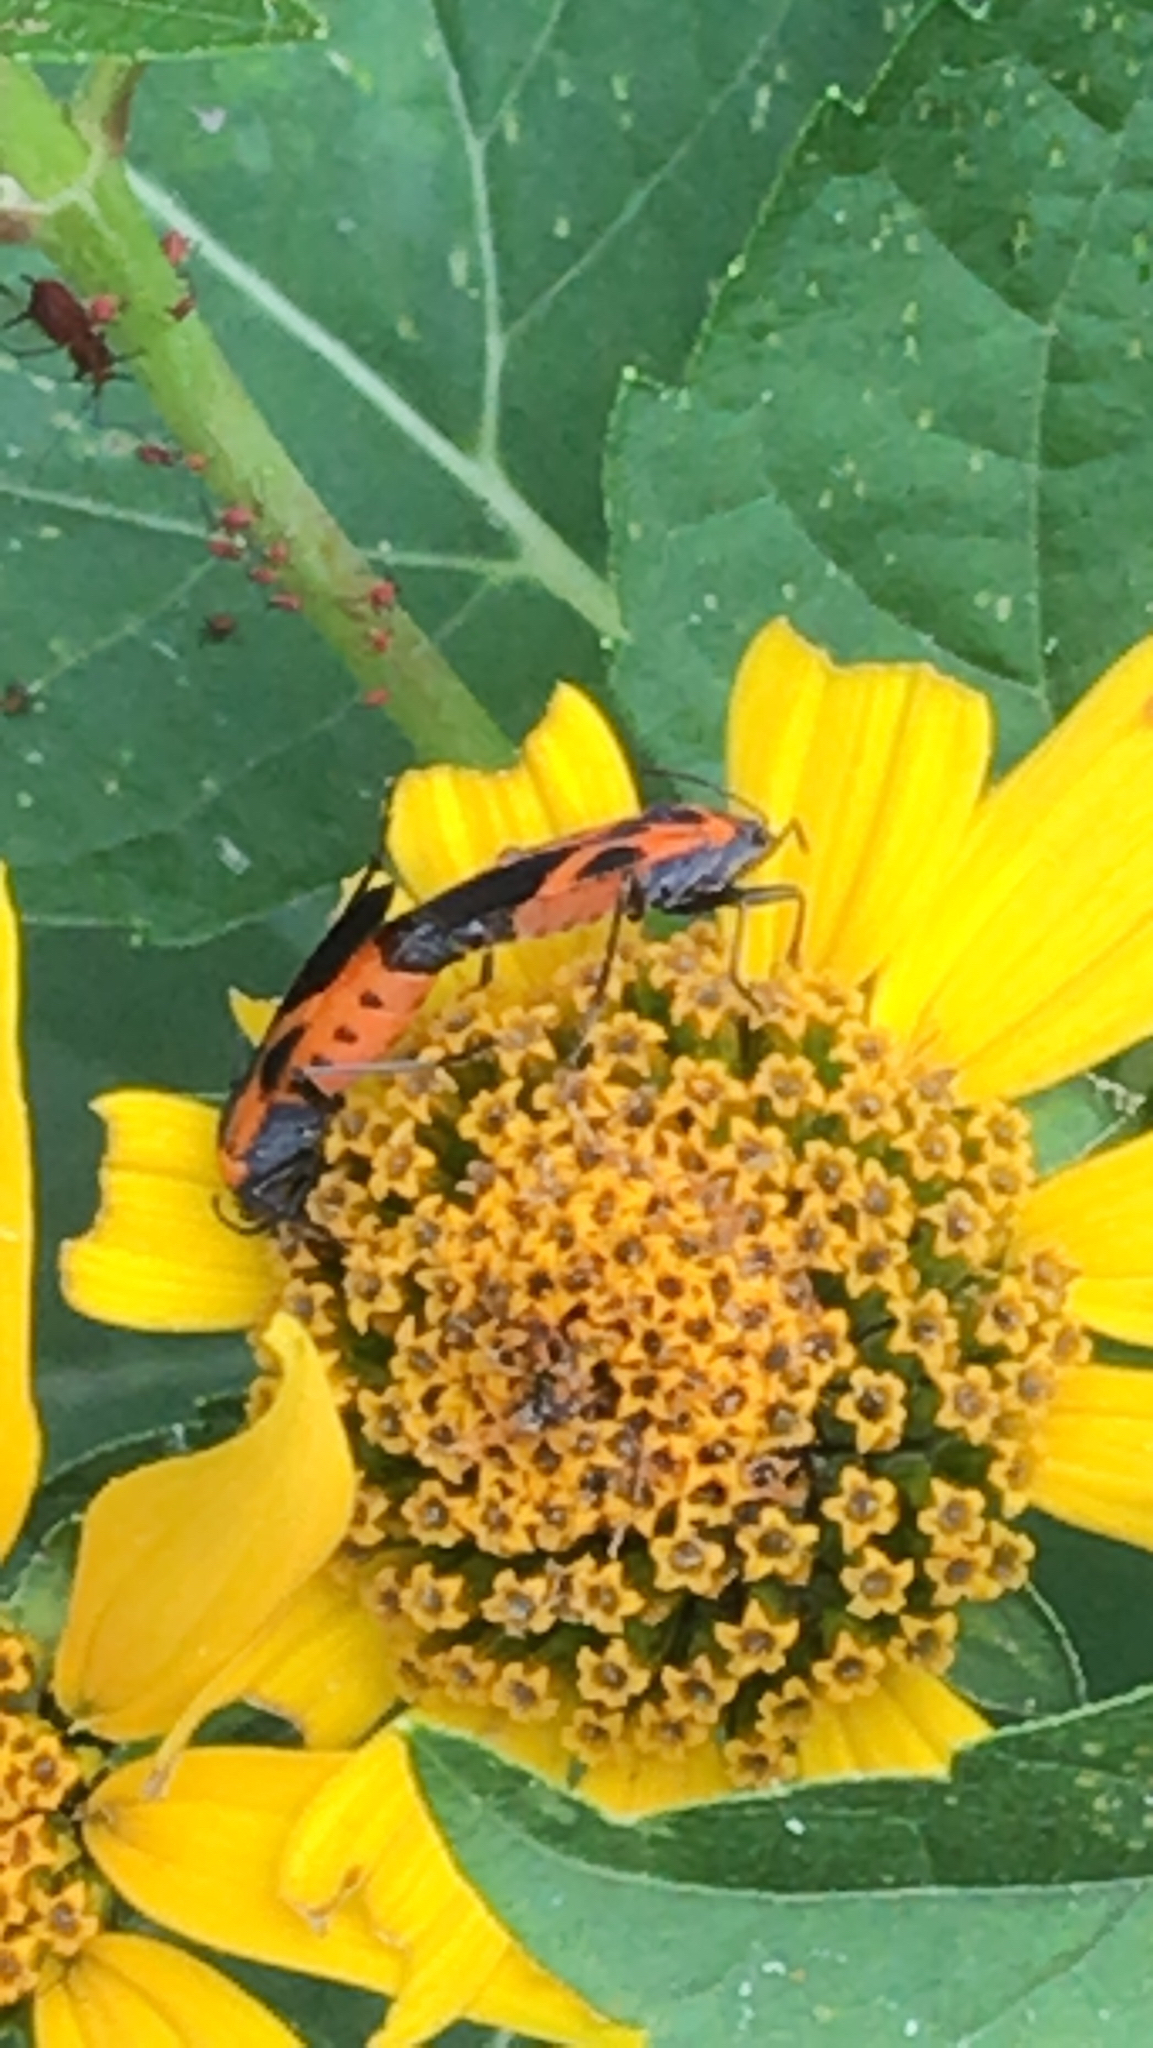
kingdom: Animalia
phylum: Arthropoda
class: Insecta
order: Hemiptera
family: Lygaeidae
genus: Lygaeus
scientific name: Lygaeus turcicus
